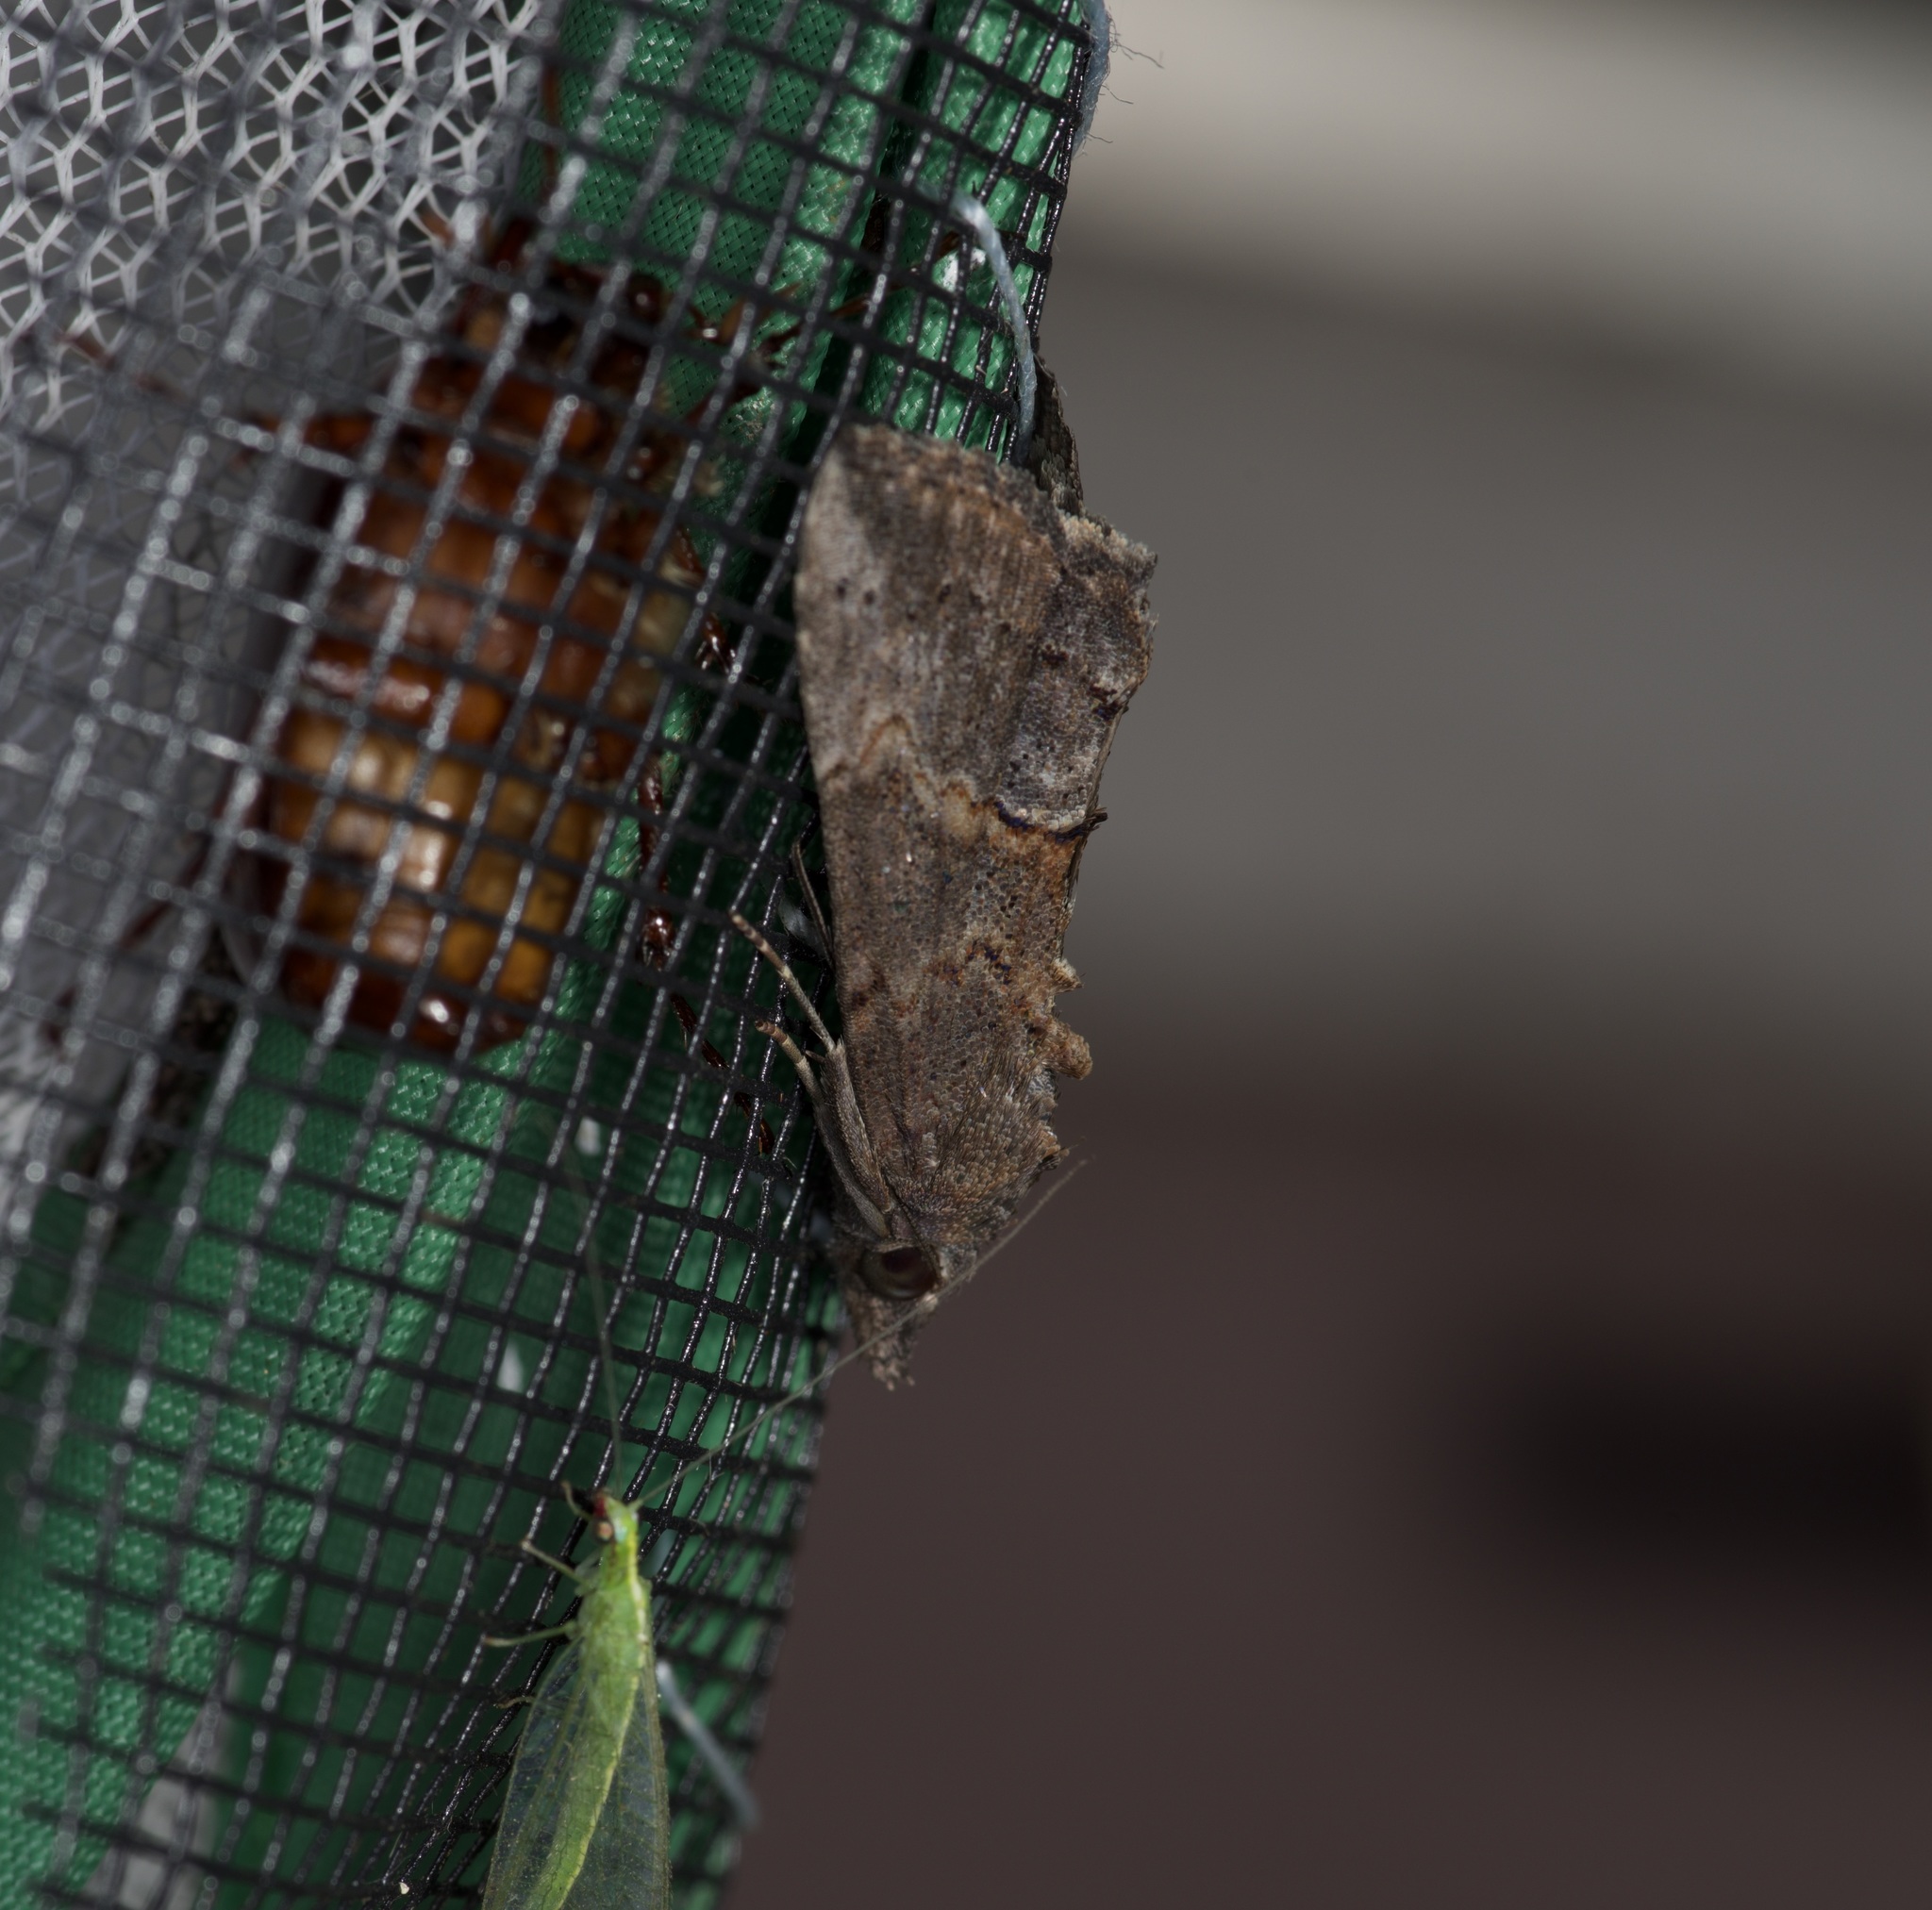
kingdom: Animalia
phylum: Arthropoda
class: Insecta
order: Lepidoptera
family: Erebidae
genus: Hypena
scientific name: Hypena scabra
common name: Green cloverworm
